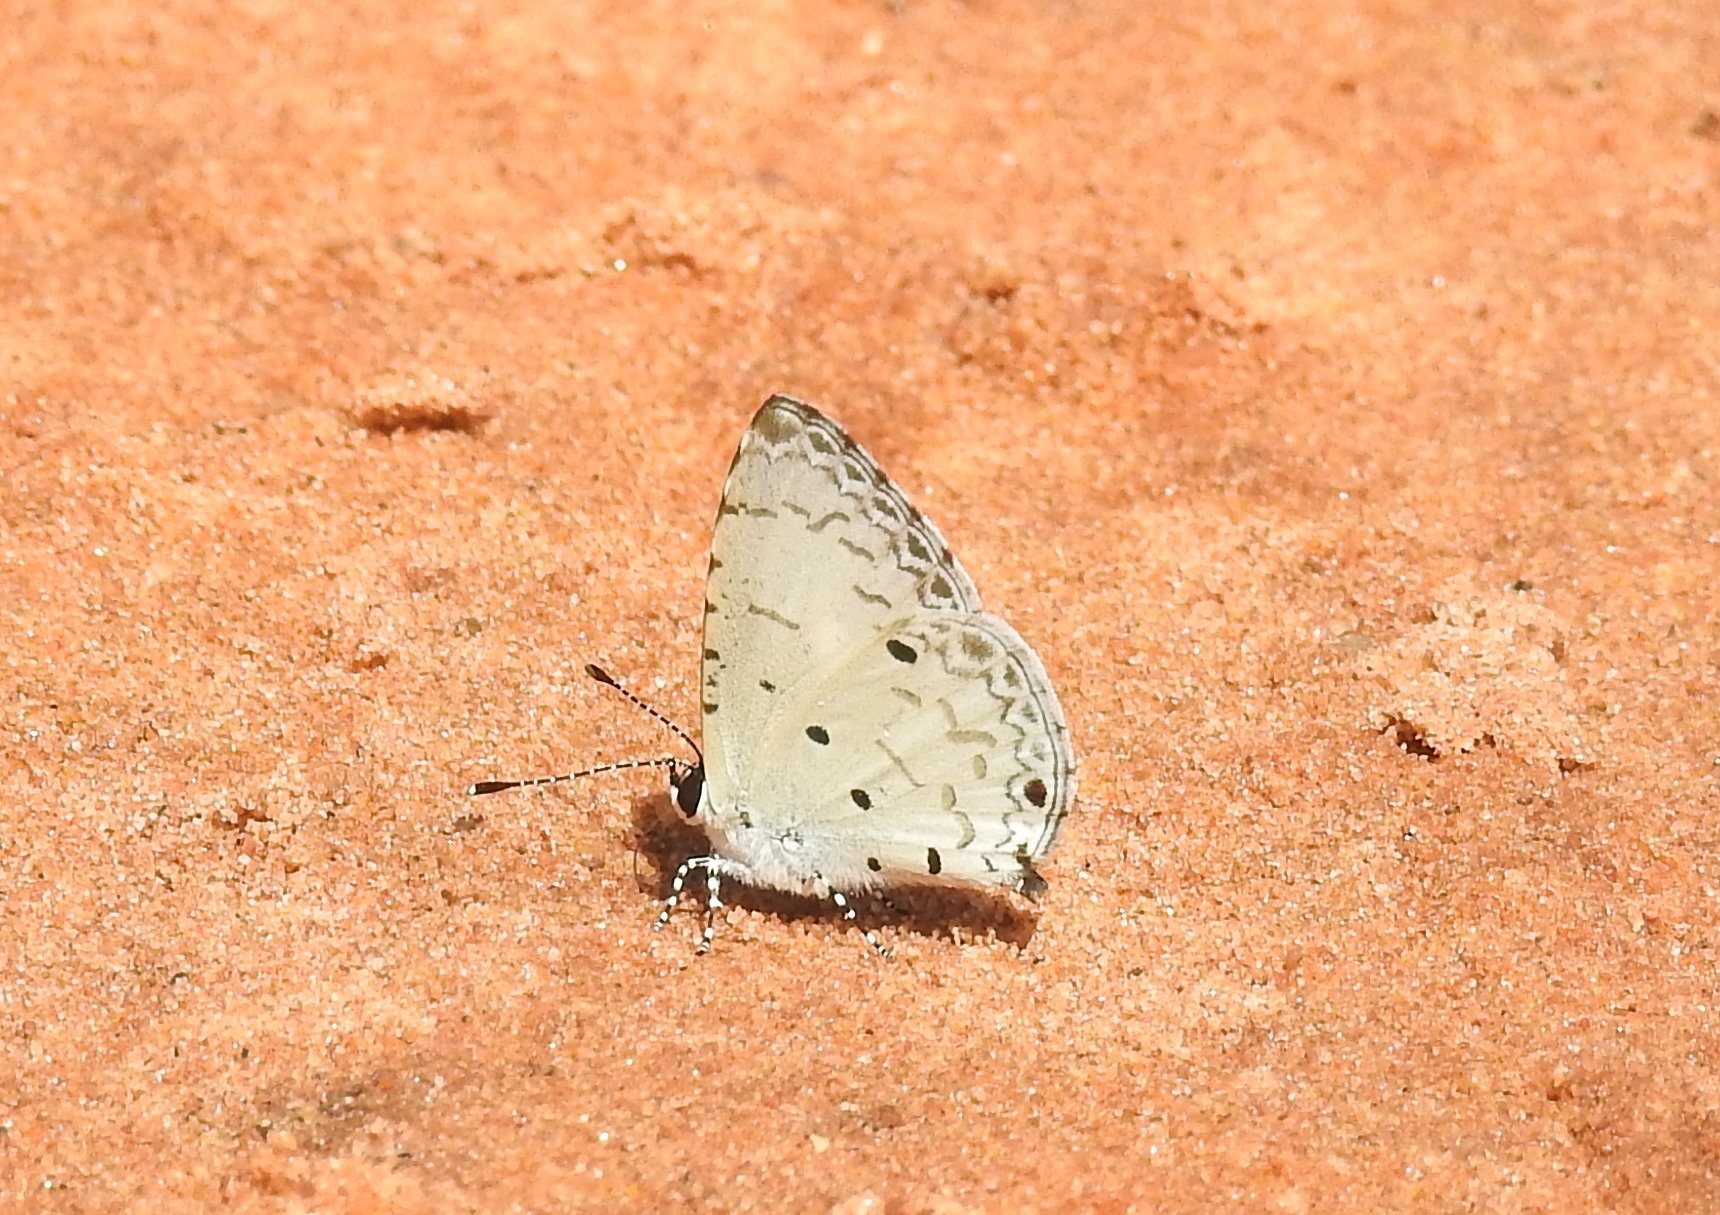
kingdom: Animalia
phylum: Arthropoda
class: Insecta
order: Lepidoptera
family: Lycaenidae
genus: Megisba
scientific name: Megisba malaya
